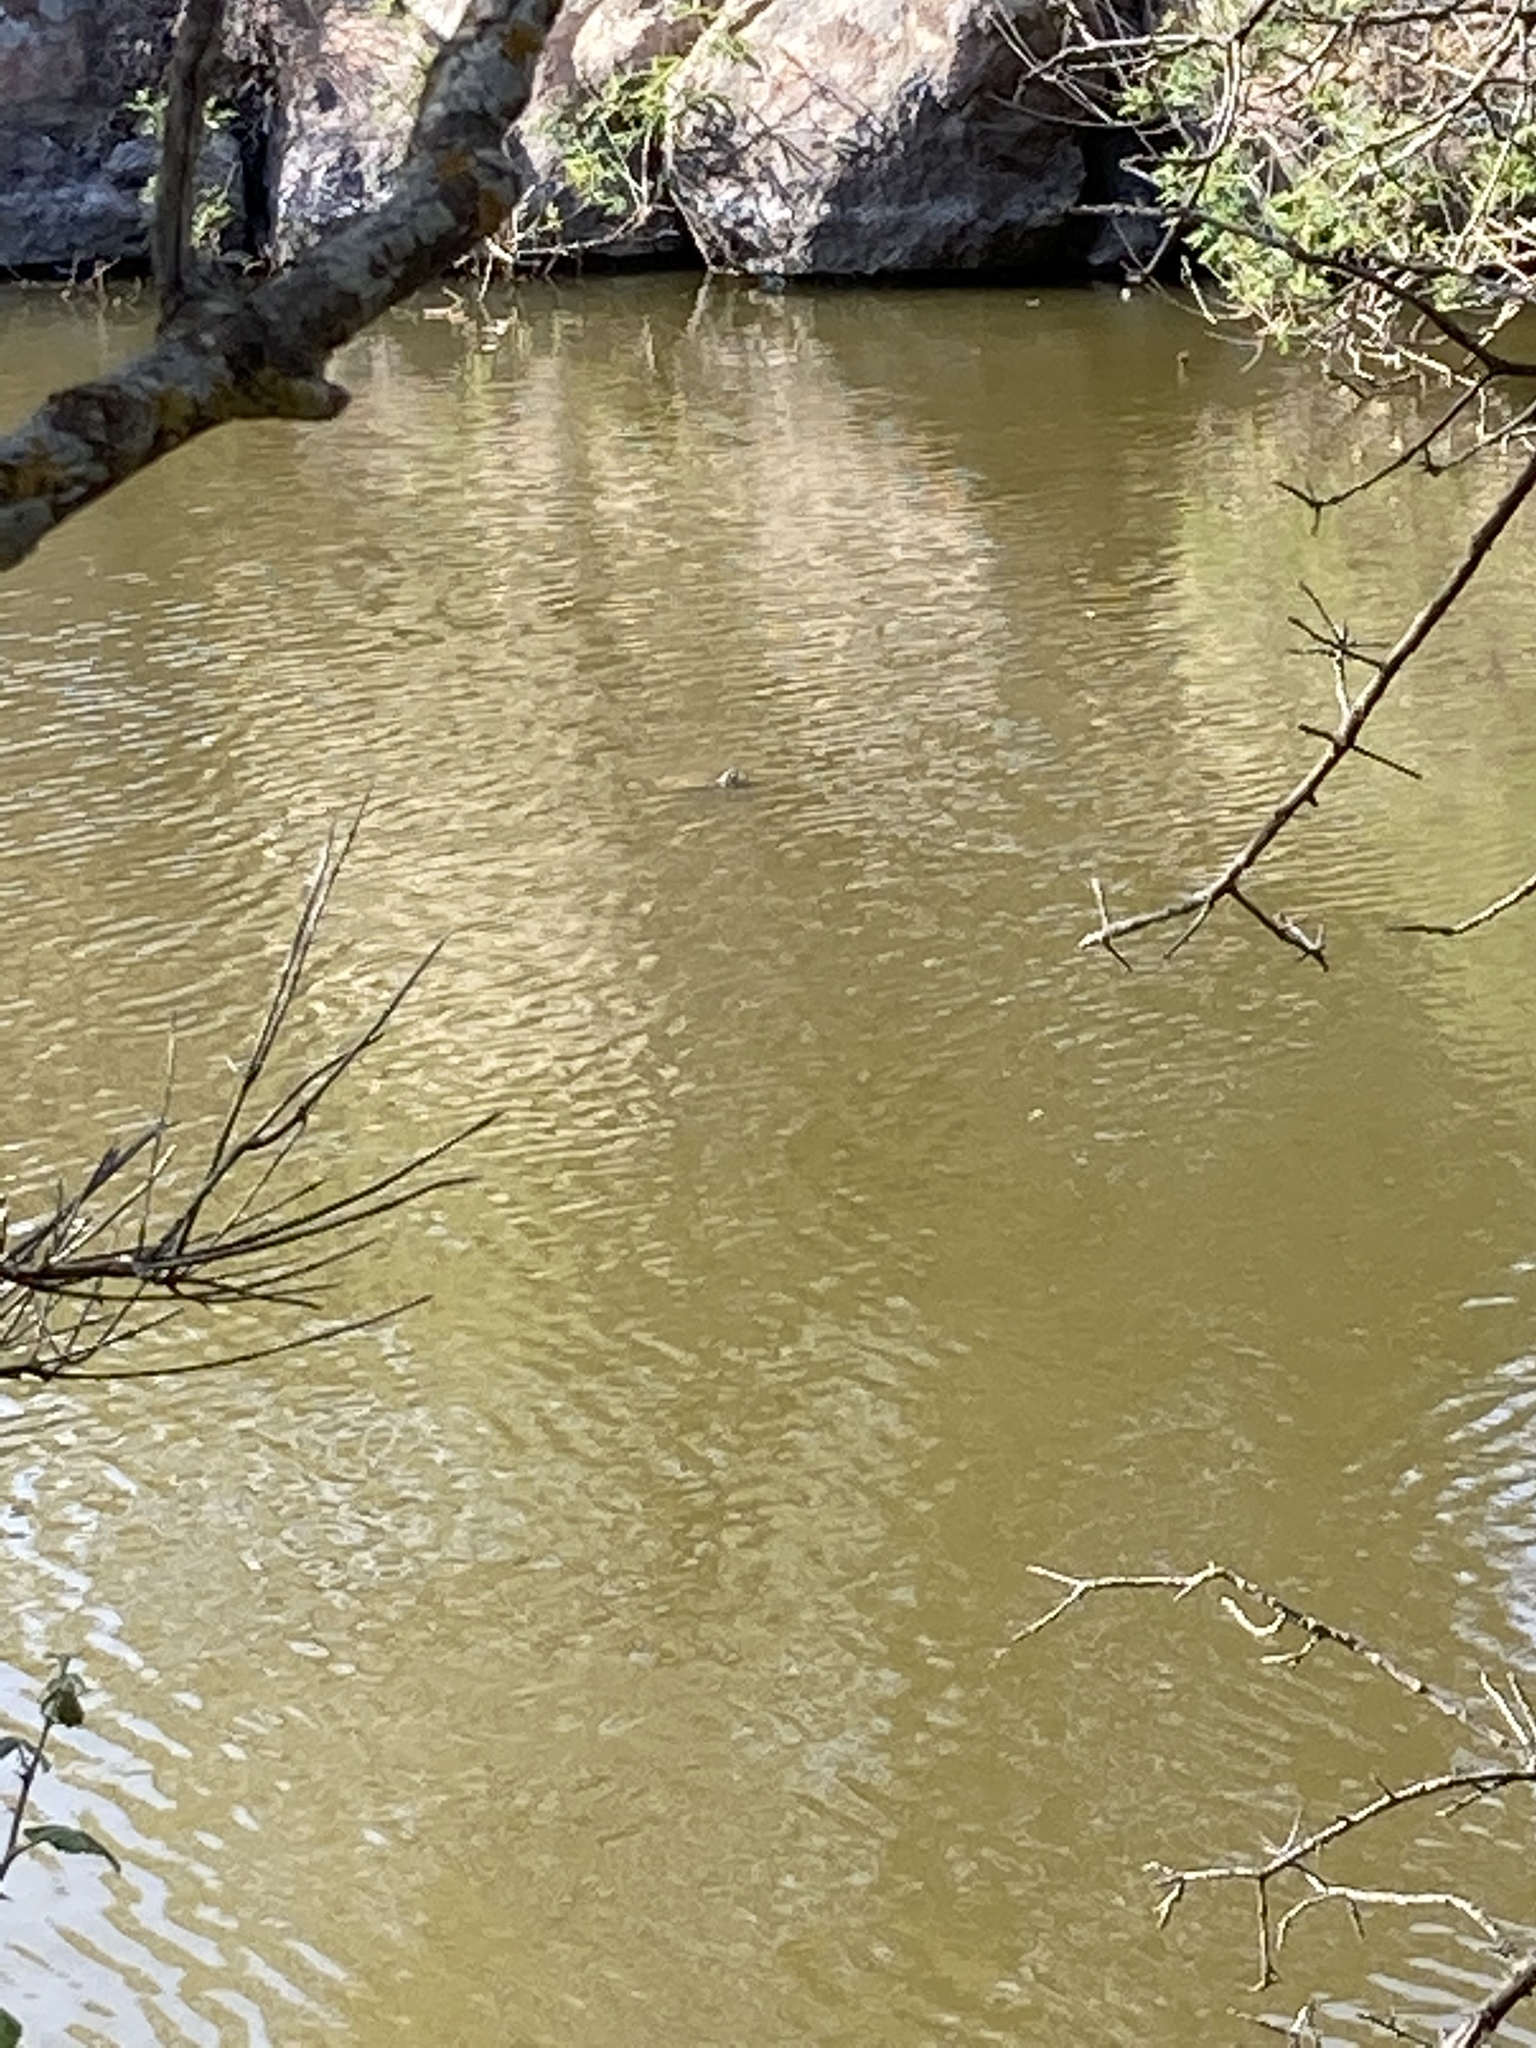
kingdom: Animalia
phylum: Chordata
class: Testudines
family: Emydidae
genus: Emys
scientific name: Emys orbicularis
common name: European pond turtle
